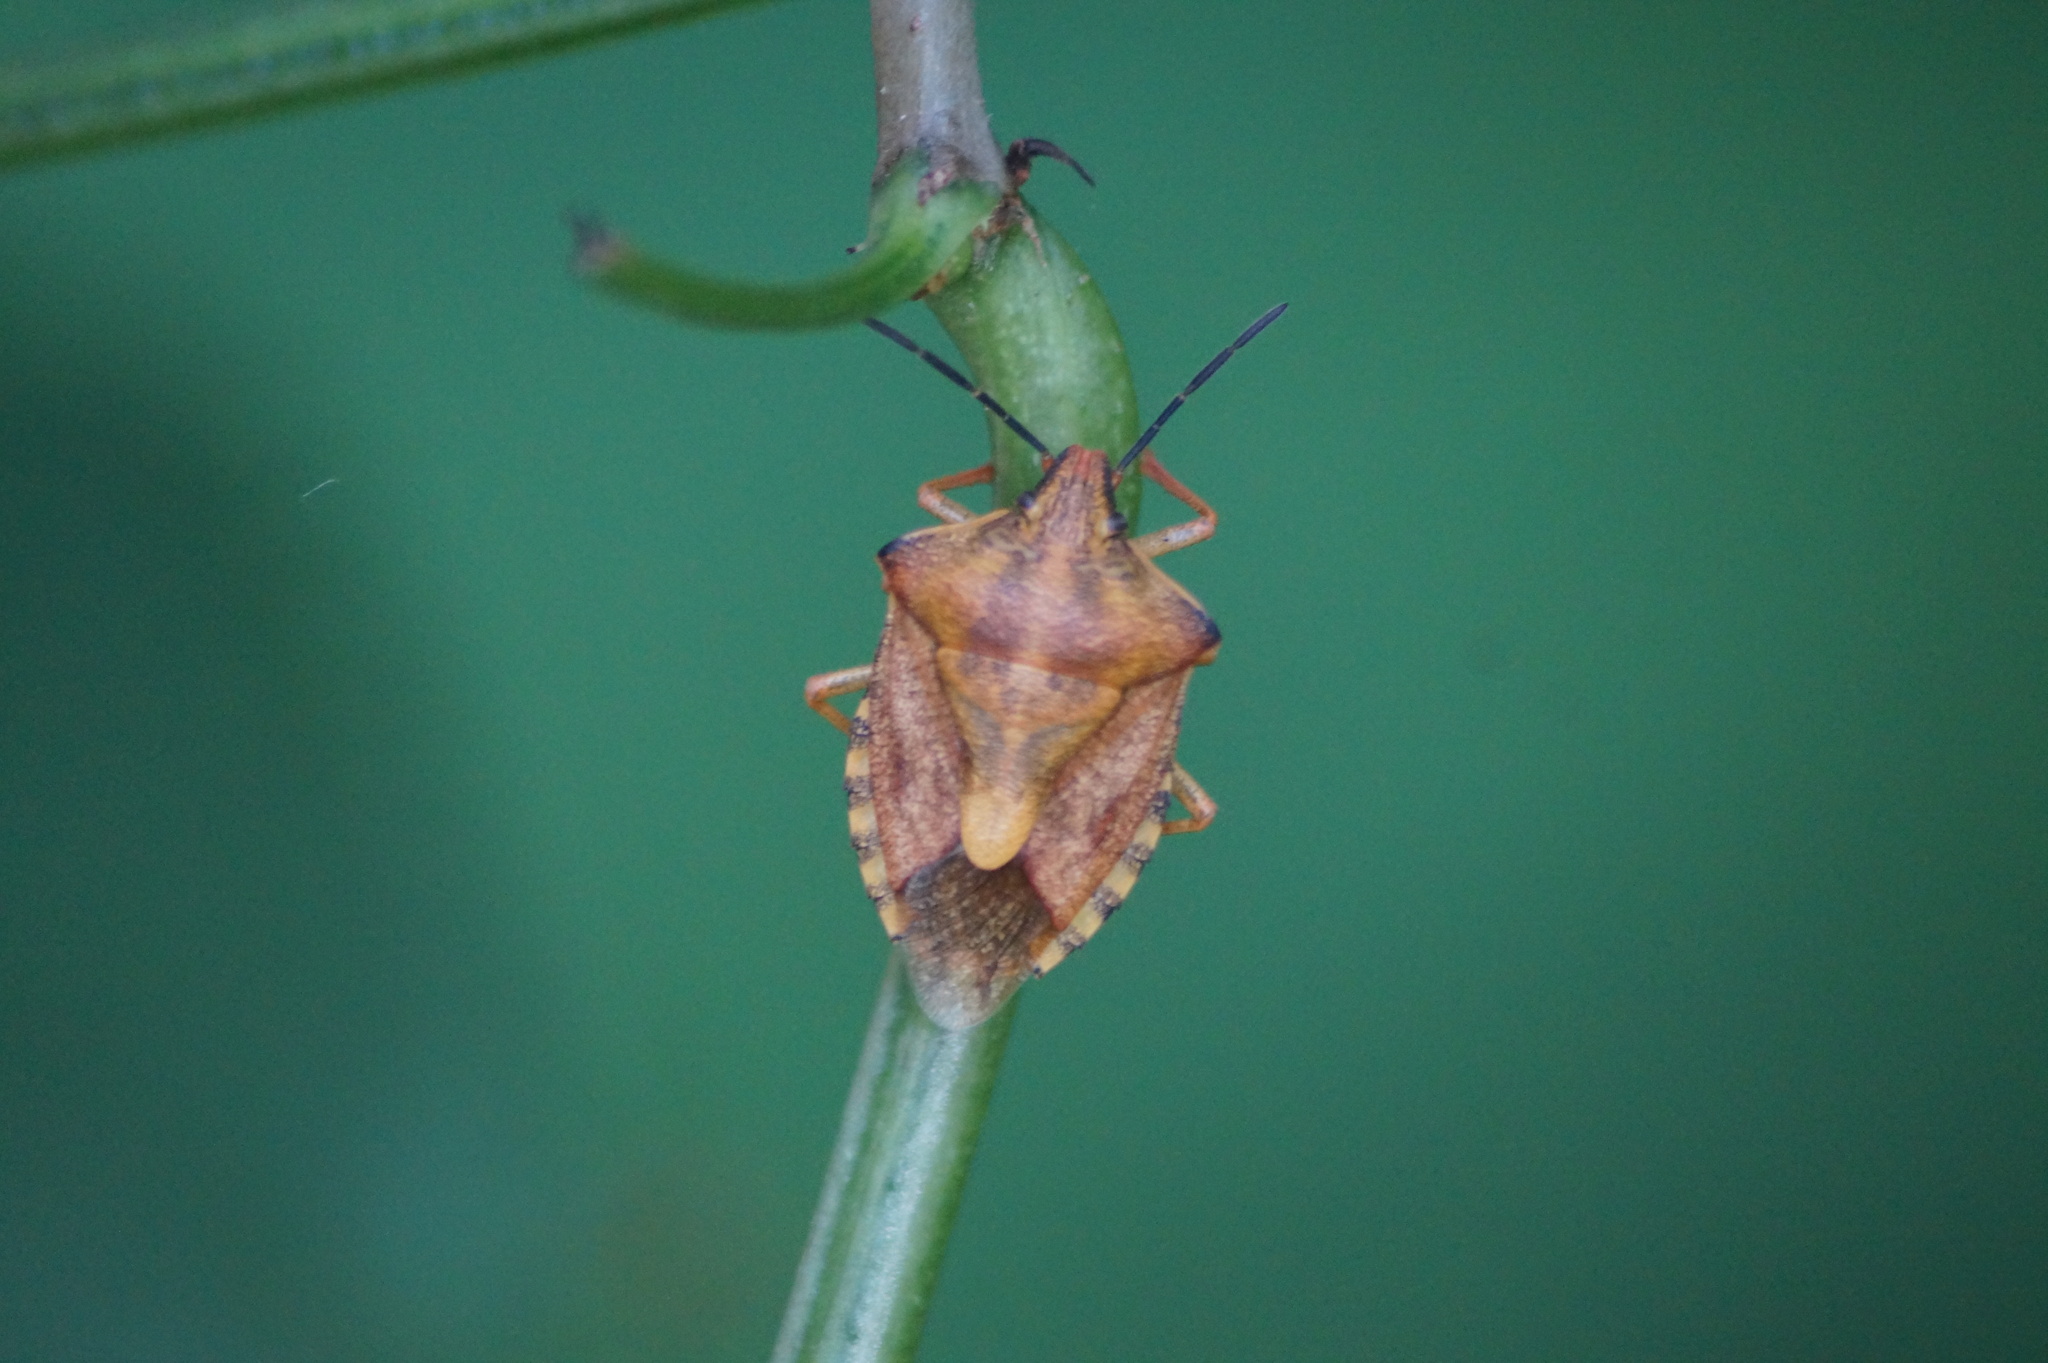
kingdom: Animalia
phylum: Arthropoda
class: Insecta
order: Hemiptera
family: Pentatomidae
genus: Carpocoris
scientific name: Carpocoris purpureipennis
